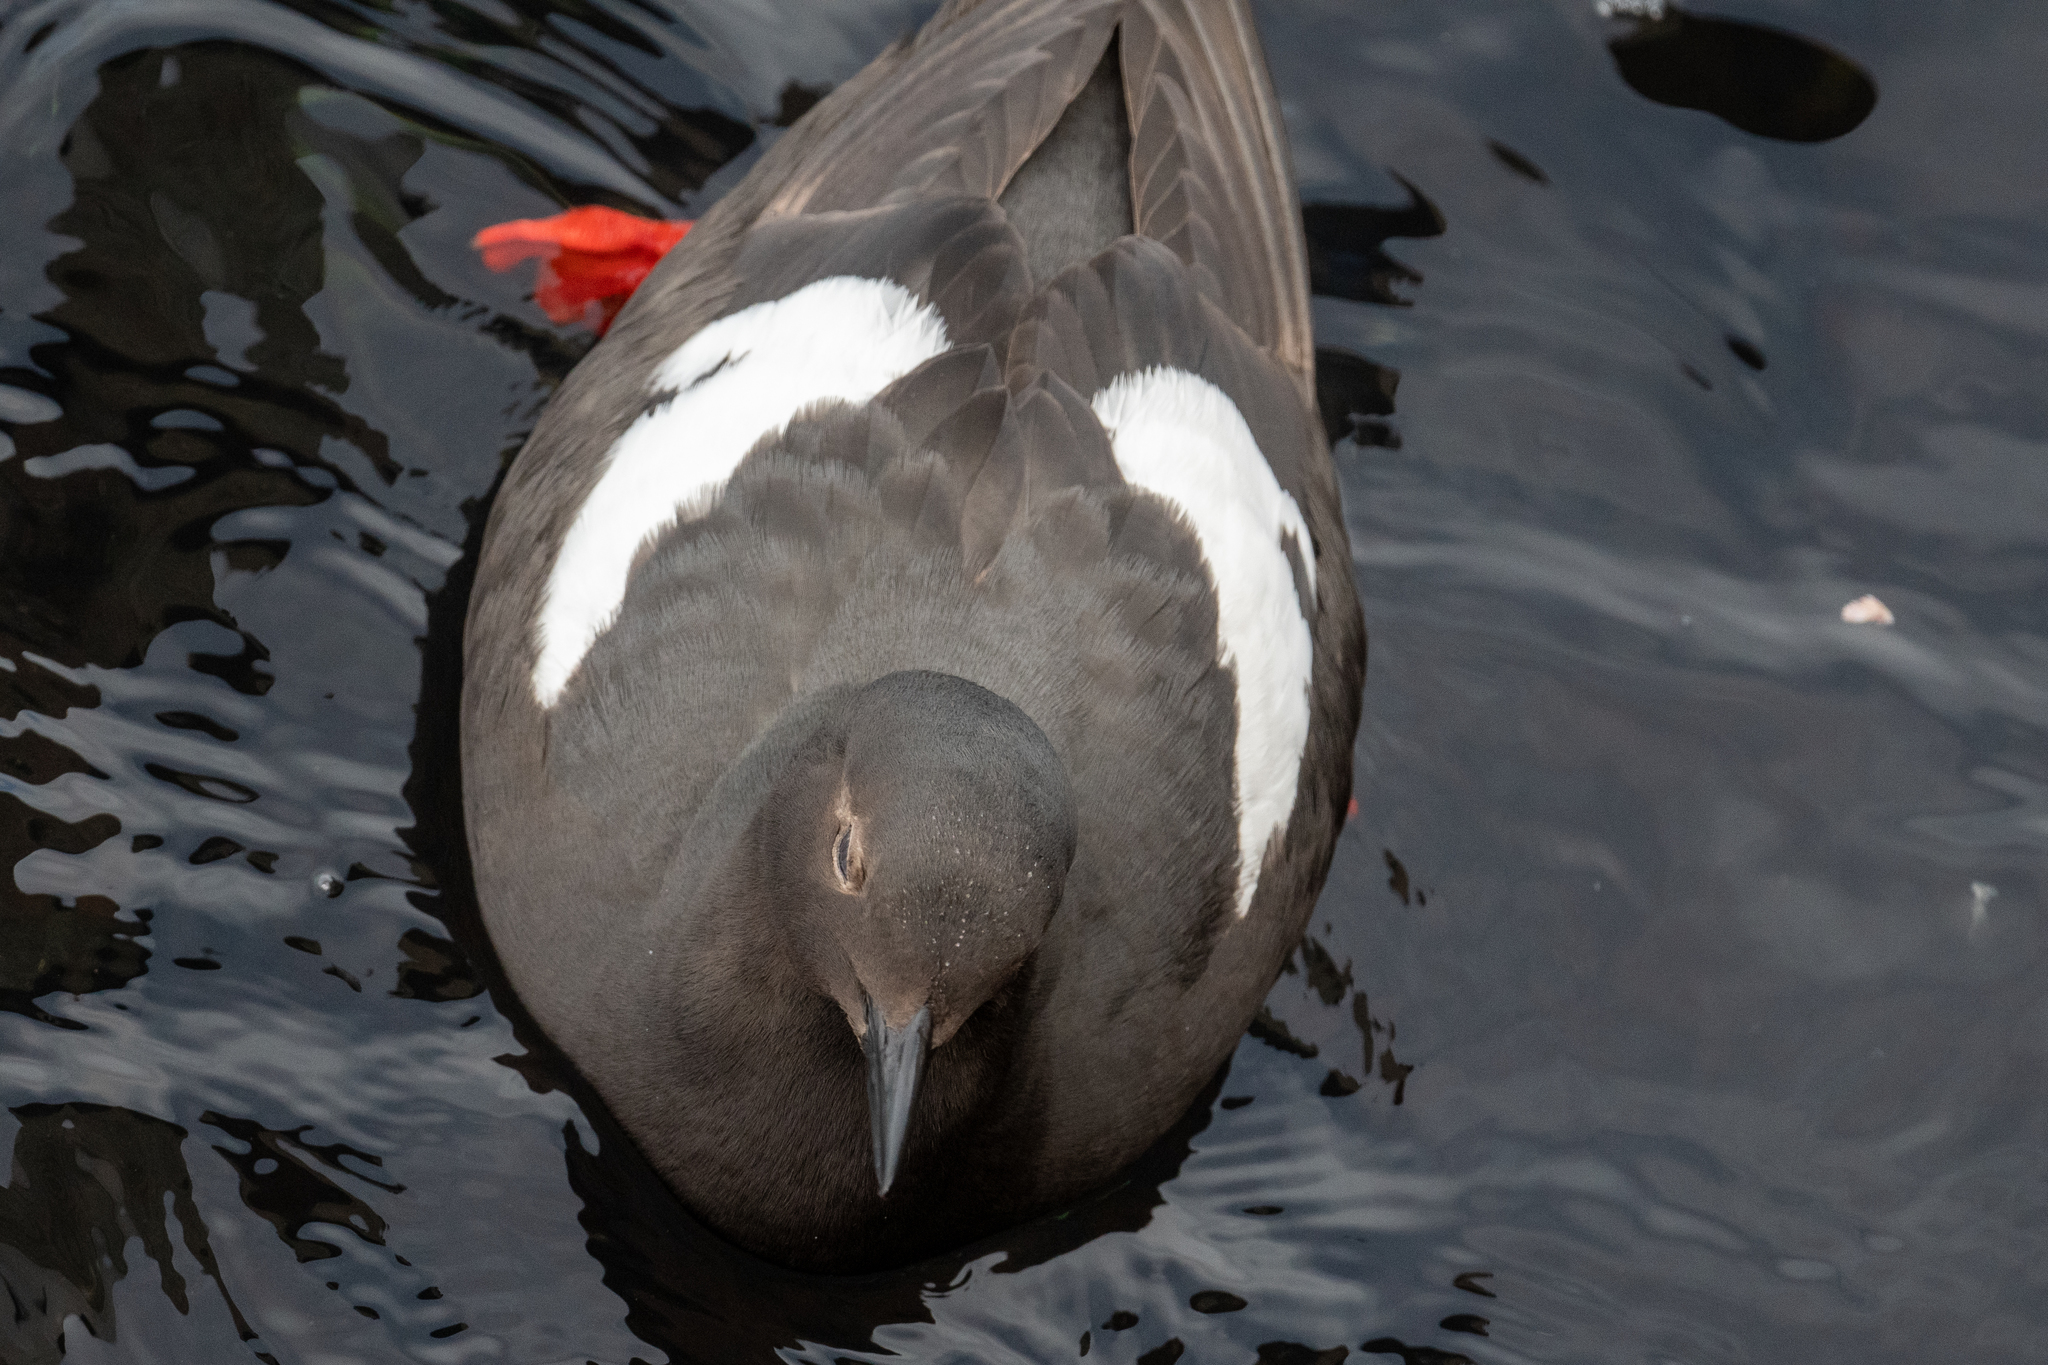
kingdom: Animalia
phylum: Chordata
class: Aves
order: Charadriiformes
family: Alcidae
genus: Cepphus
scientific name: Cepphus columba
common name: Pigeon guillemot
